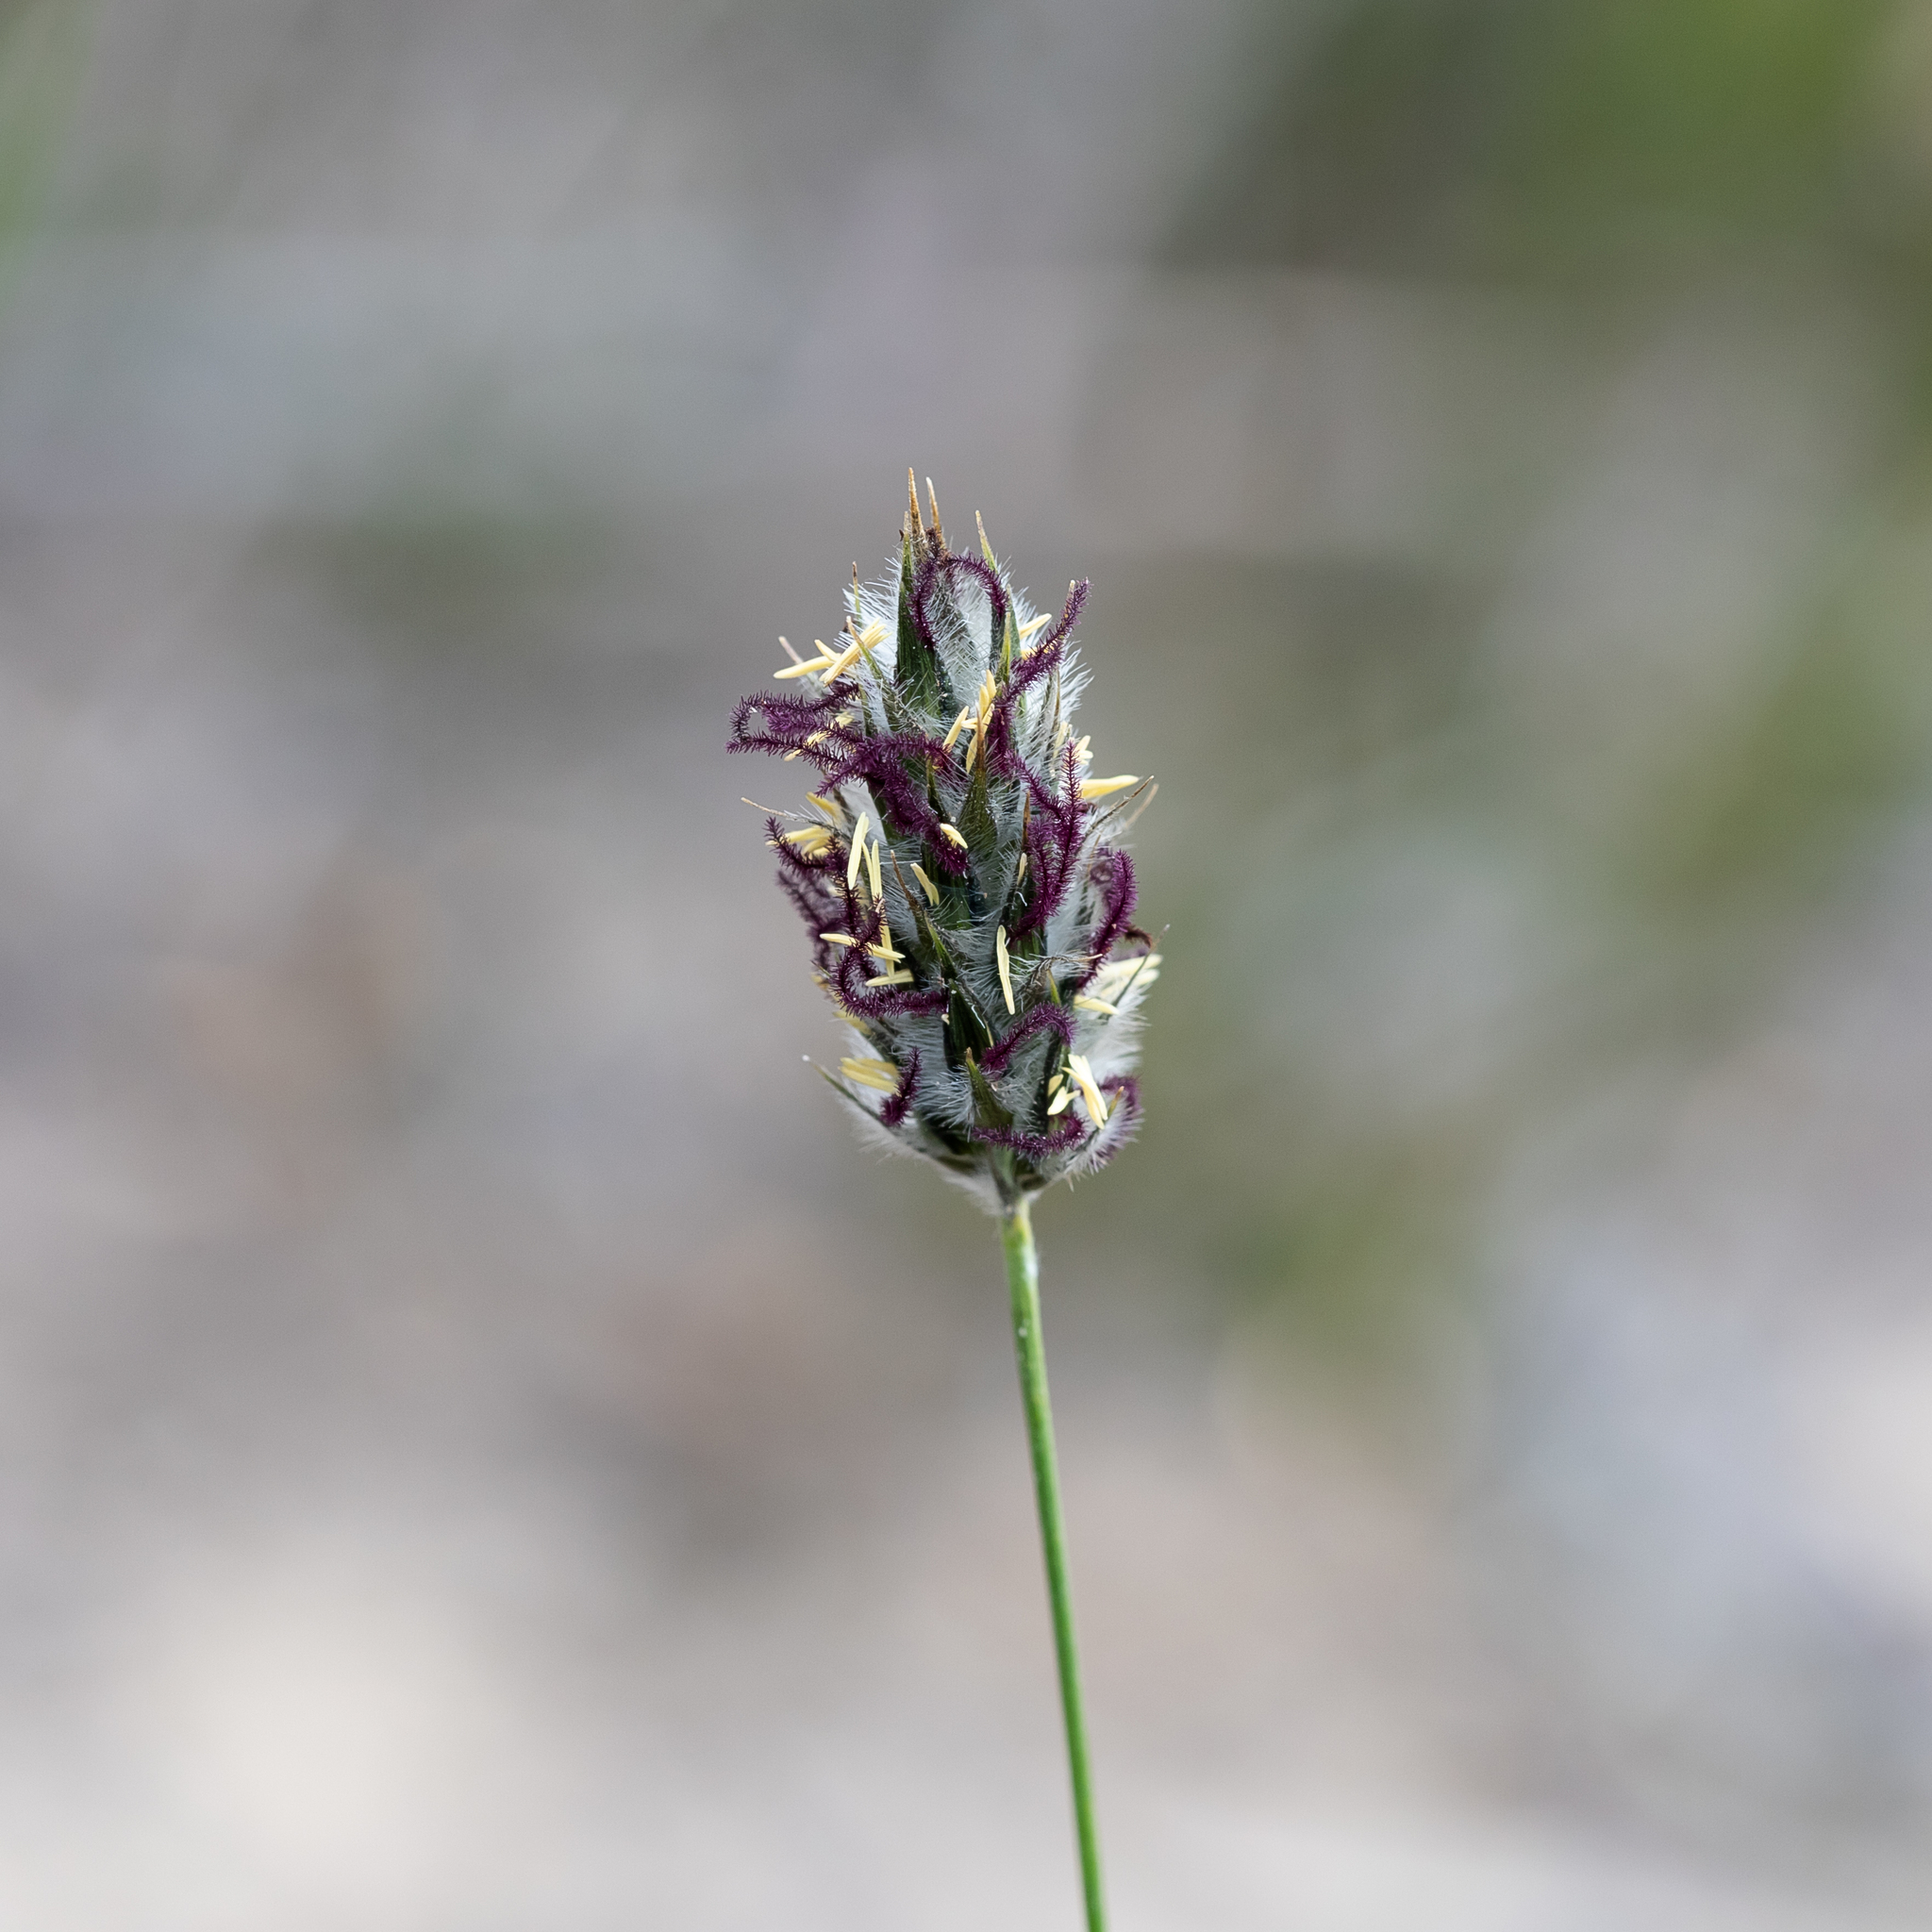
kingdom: Plantae
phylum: Tracheophyta
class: Liliopsida
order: Poales
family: Poaceae
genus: Neurachne
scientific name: Neurachne alopecuroidea
